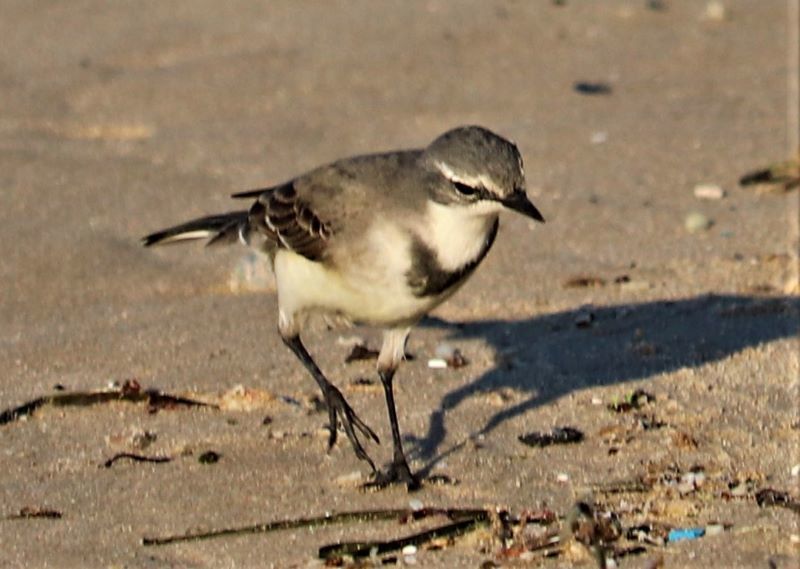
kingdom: Animalia
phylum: Chordata
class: Aves
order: Passeriformes
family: Motacillidae
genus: Motacilla
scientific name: Motacilla capensis
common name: Cape wagtail
